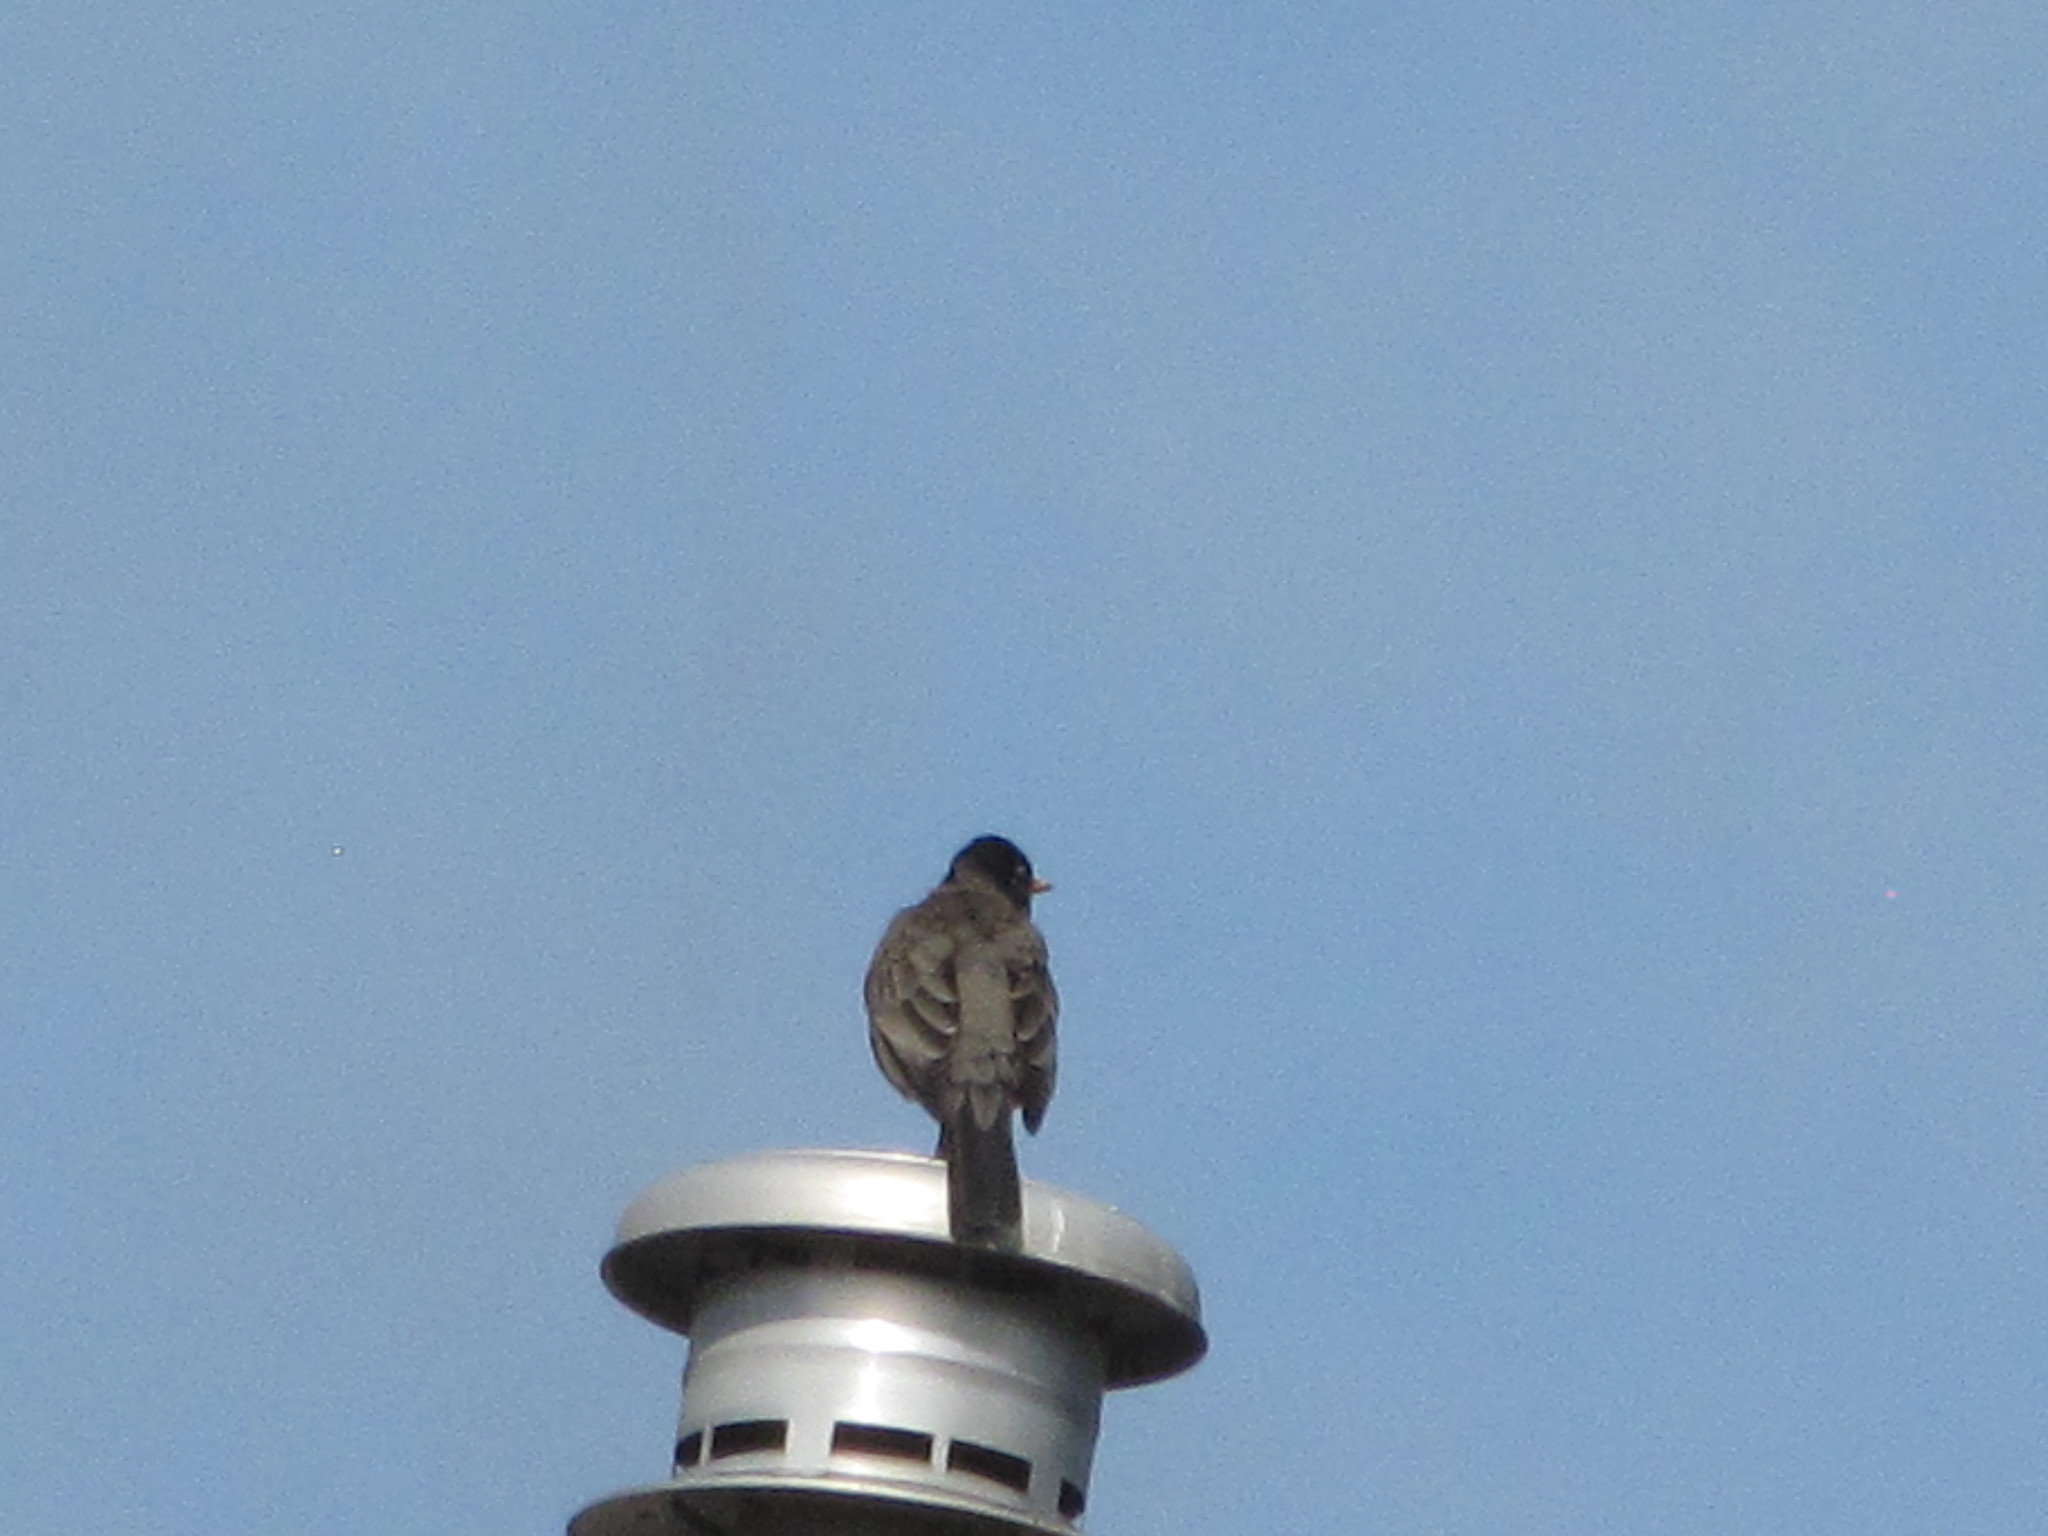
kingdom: Animalia
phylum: Chordata
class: Aves
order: Passeriformes
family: Turdidae
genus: Turdus
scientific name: Turdus migratorius
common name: American robin
